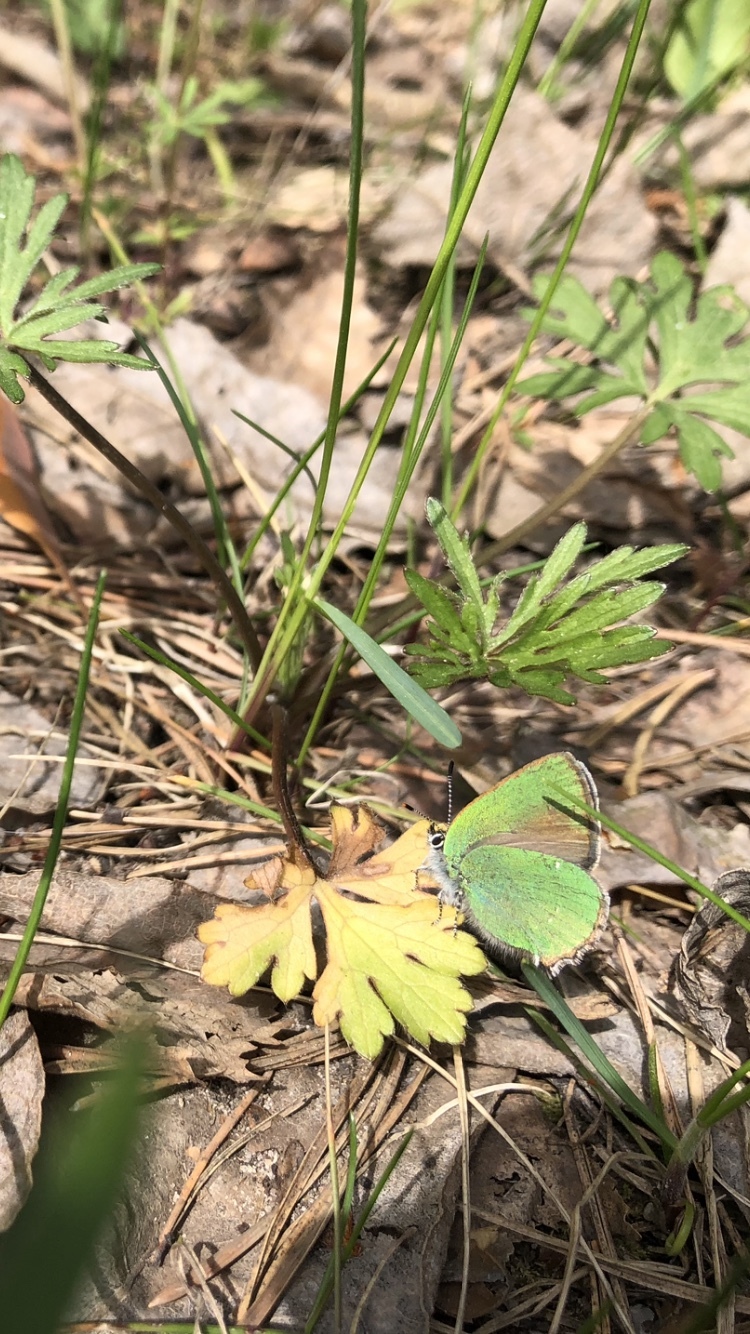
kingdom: Animalia
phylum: Arthropoda
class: Insecta
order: Lepidoptera
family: Lycaenidae
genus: Callophrys
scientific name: Callophrys rubi
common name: Green hairstreak
